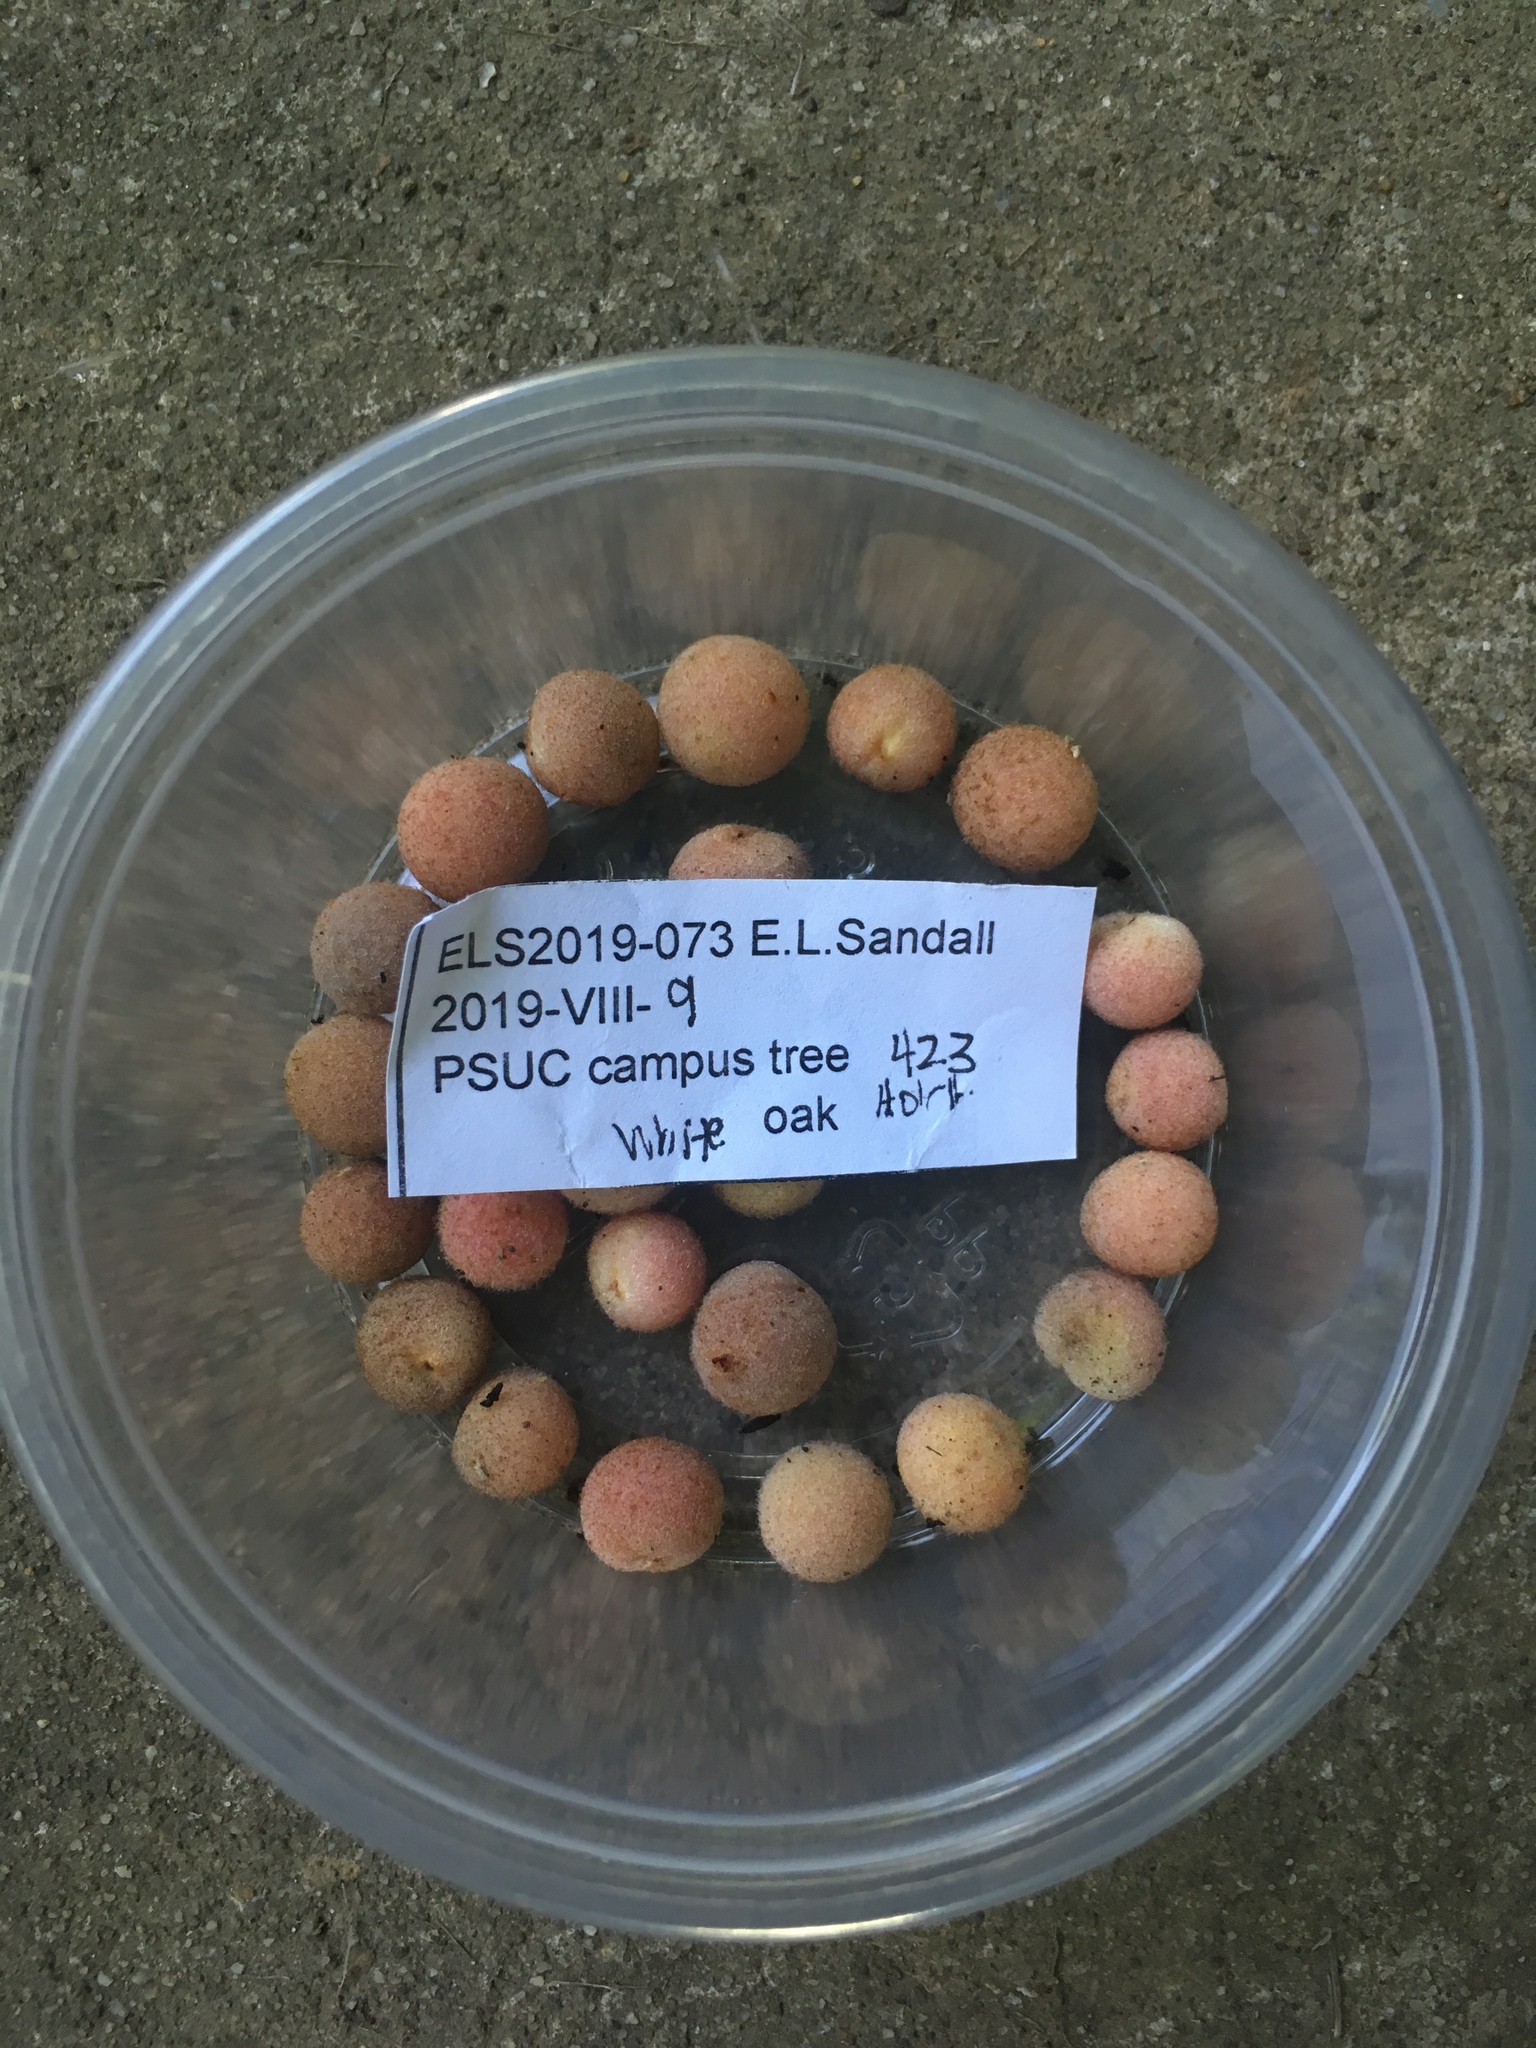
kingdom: Animalia
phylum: Arthropoda
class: Insecta
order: Hymenoptera
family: Cynipidae
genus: Philonix
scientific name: Philonix fulvicollis
